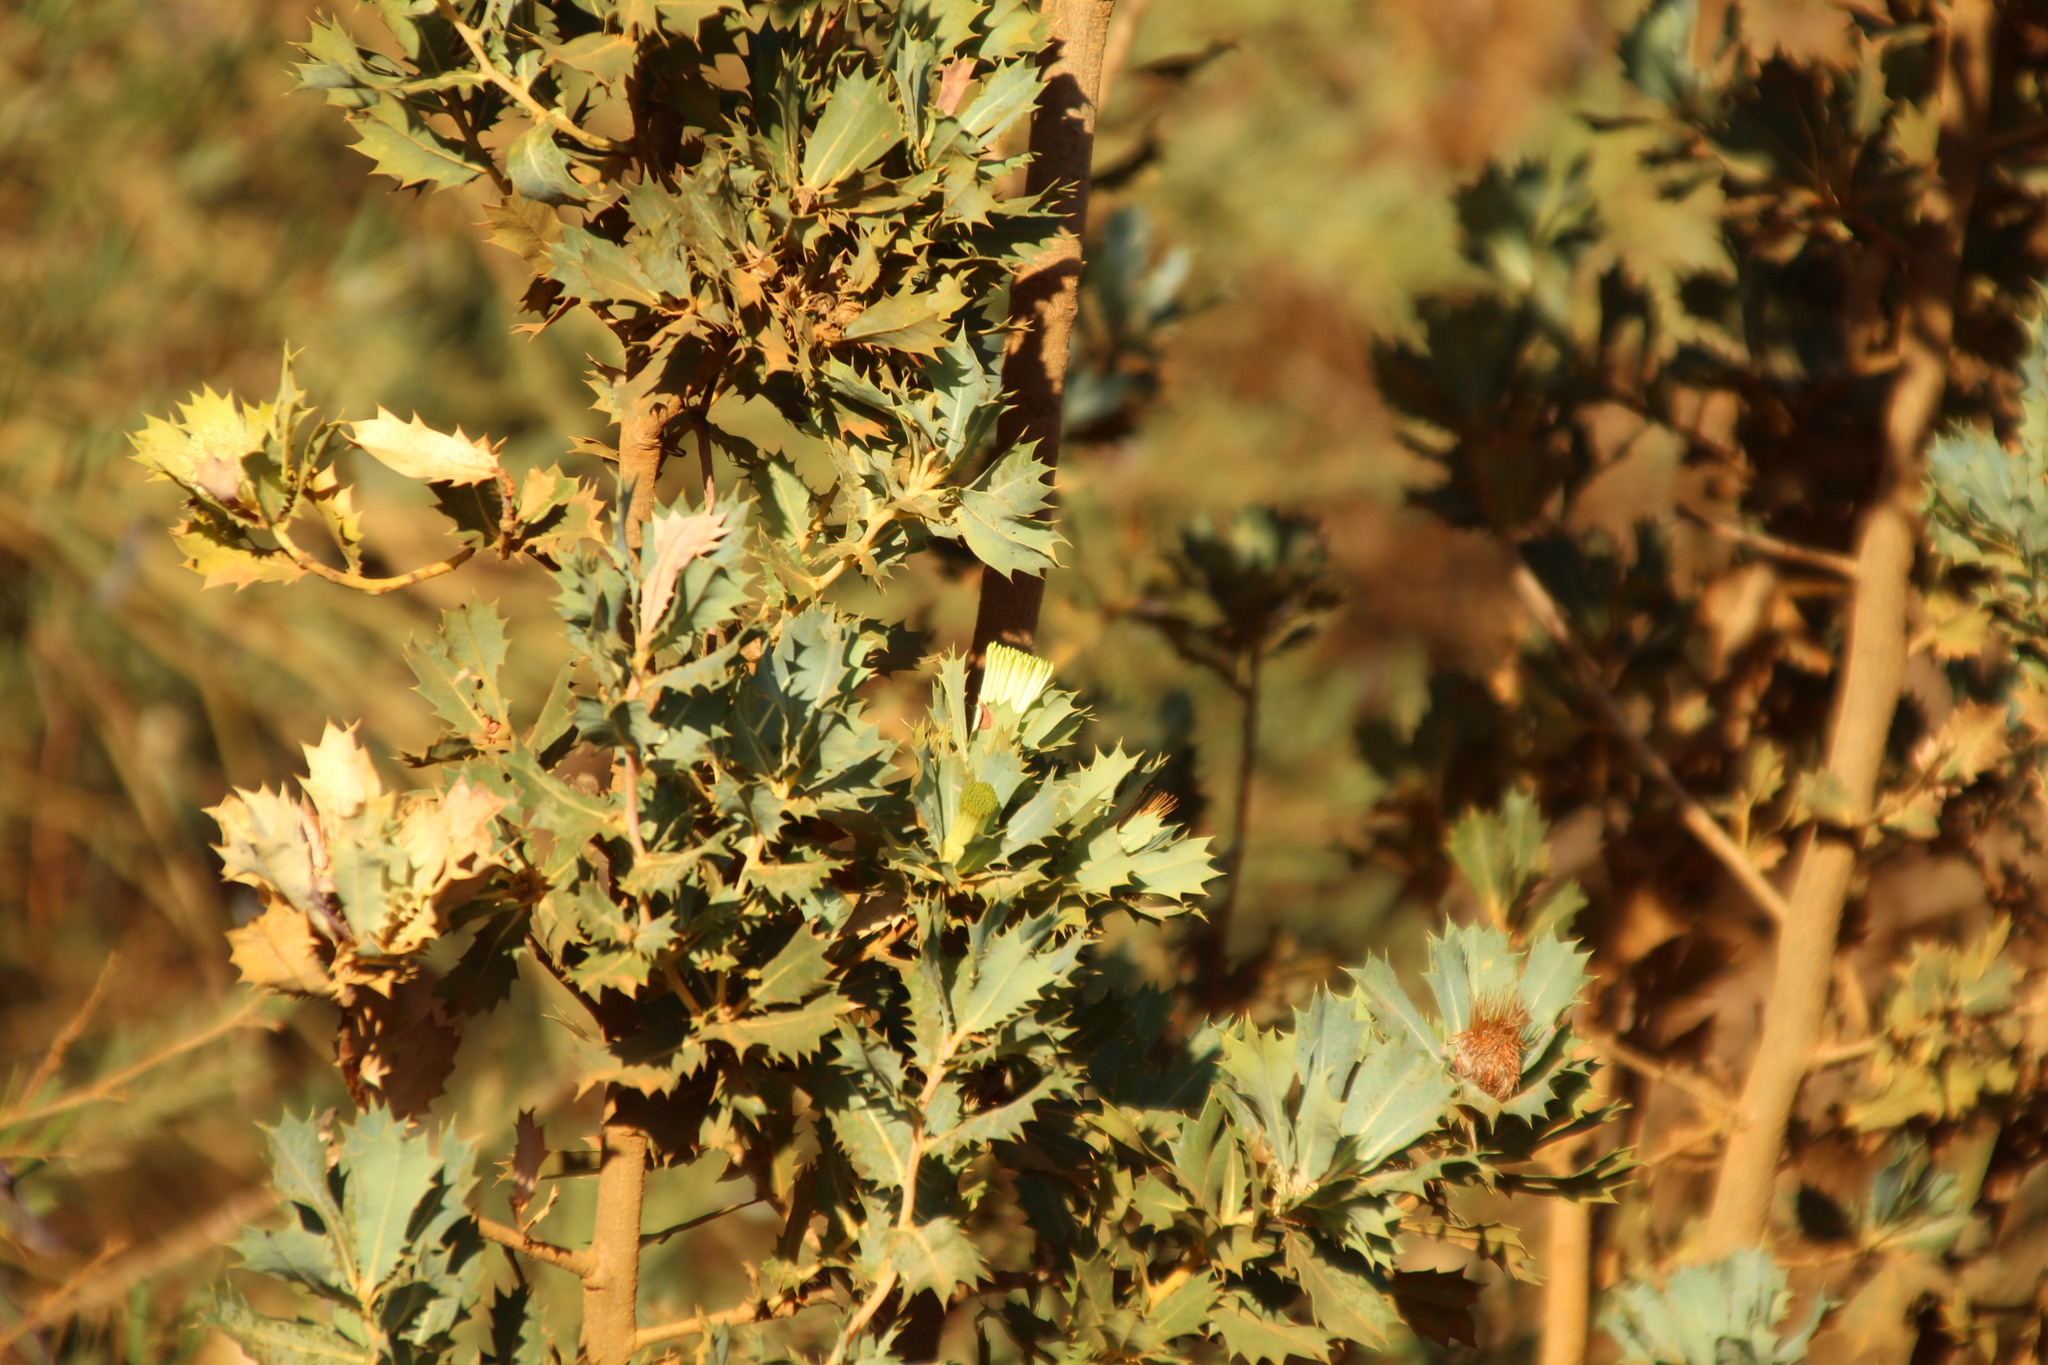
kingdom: Plantae
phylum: Tracheophyta
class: Magnoliopsida
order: Proteales
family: Proteaceae
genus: Banksia
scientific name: Banksia sessilis
